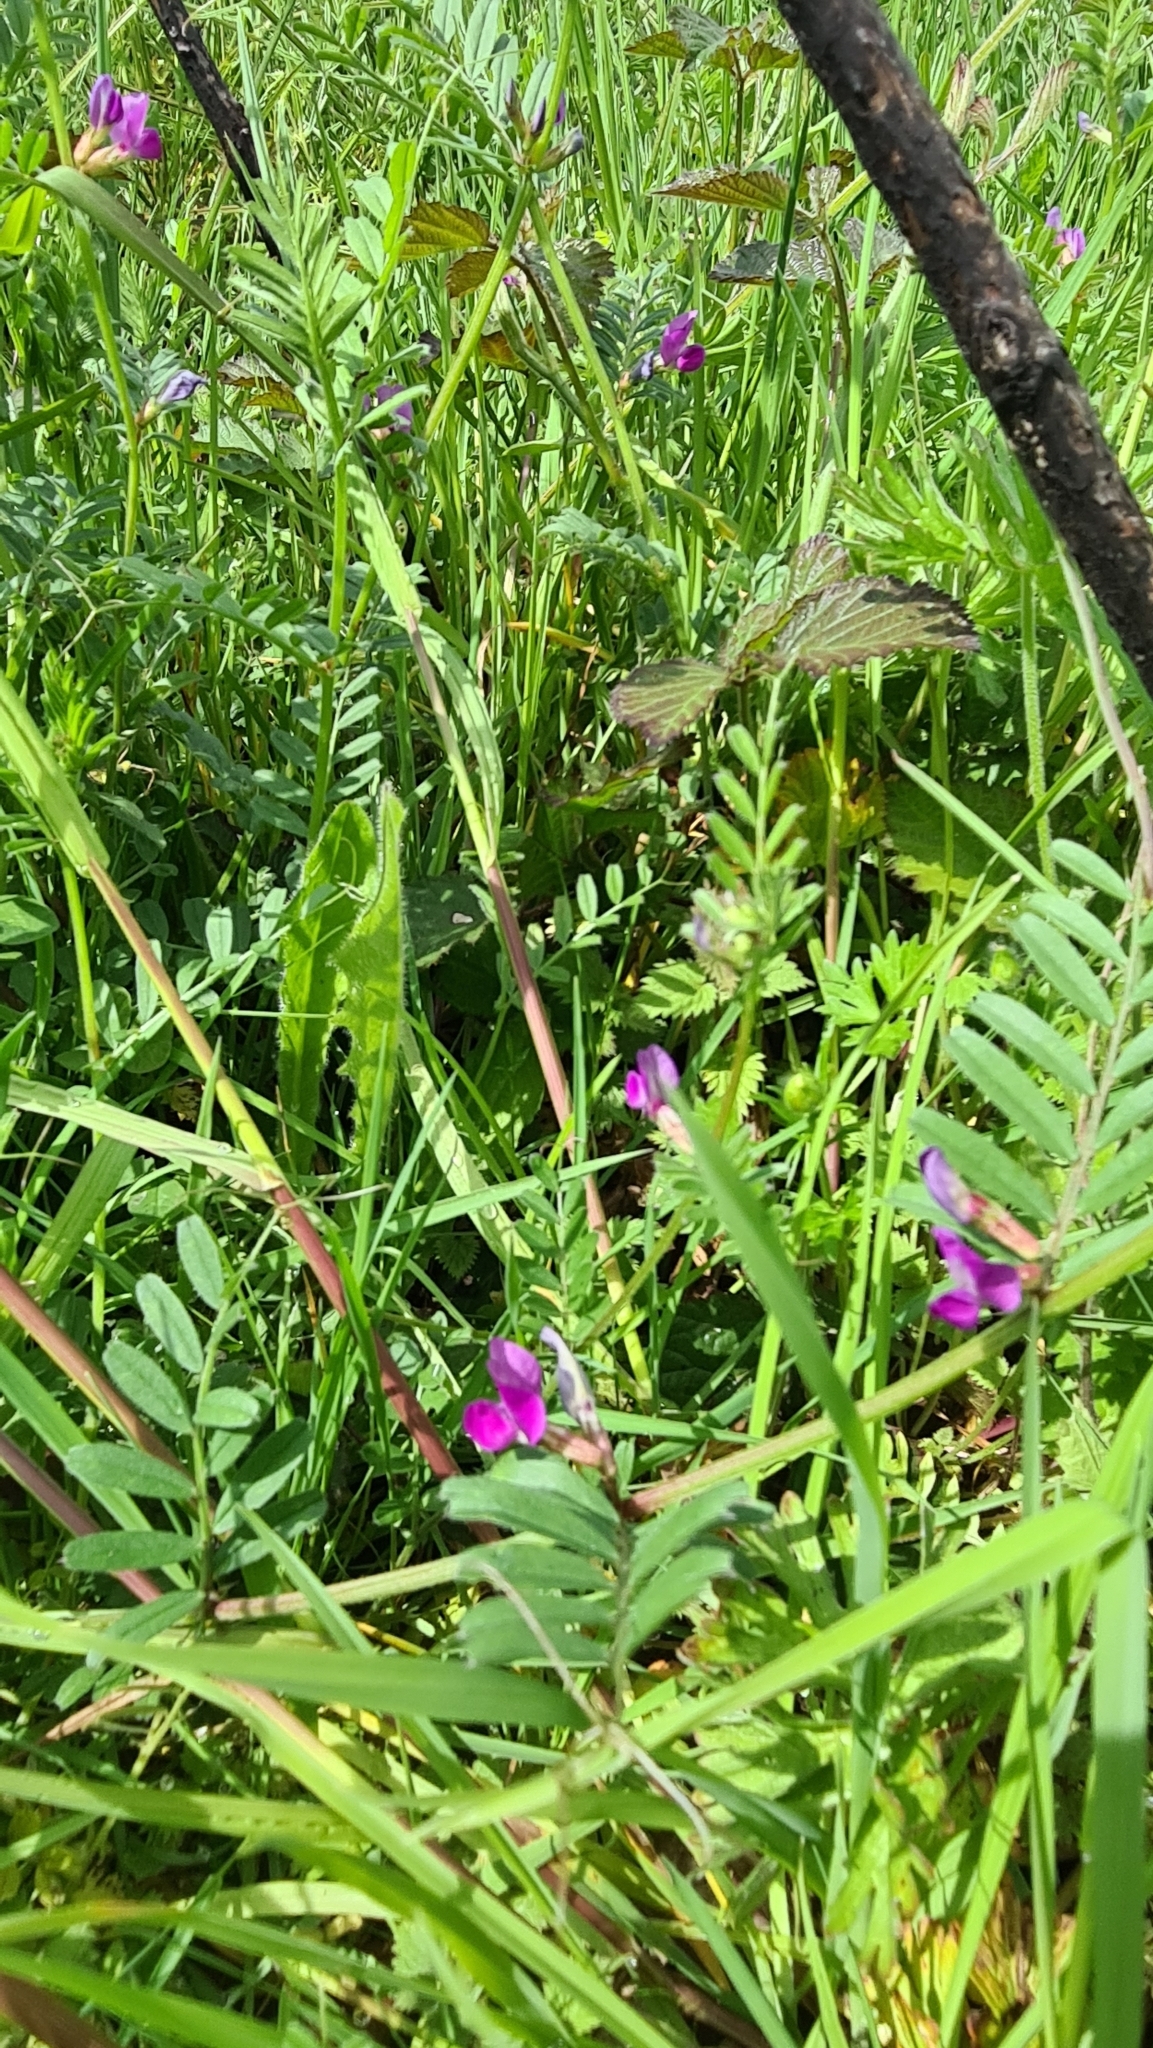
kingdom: Plantae
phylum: Tracheophyta
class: Magnoliopsida
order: Fabales
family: Fabaceae
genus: Vicia
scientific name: Vicia sativa
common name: Garden vetch
